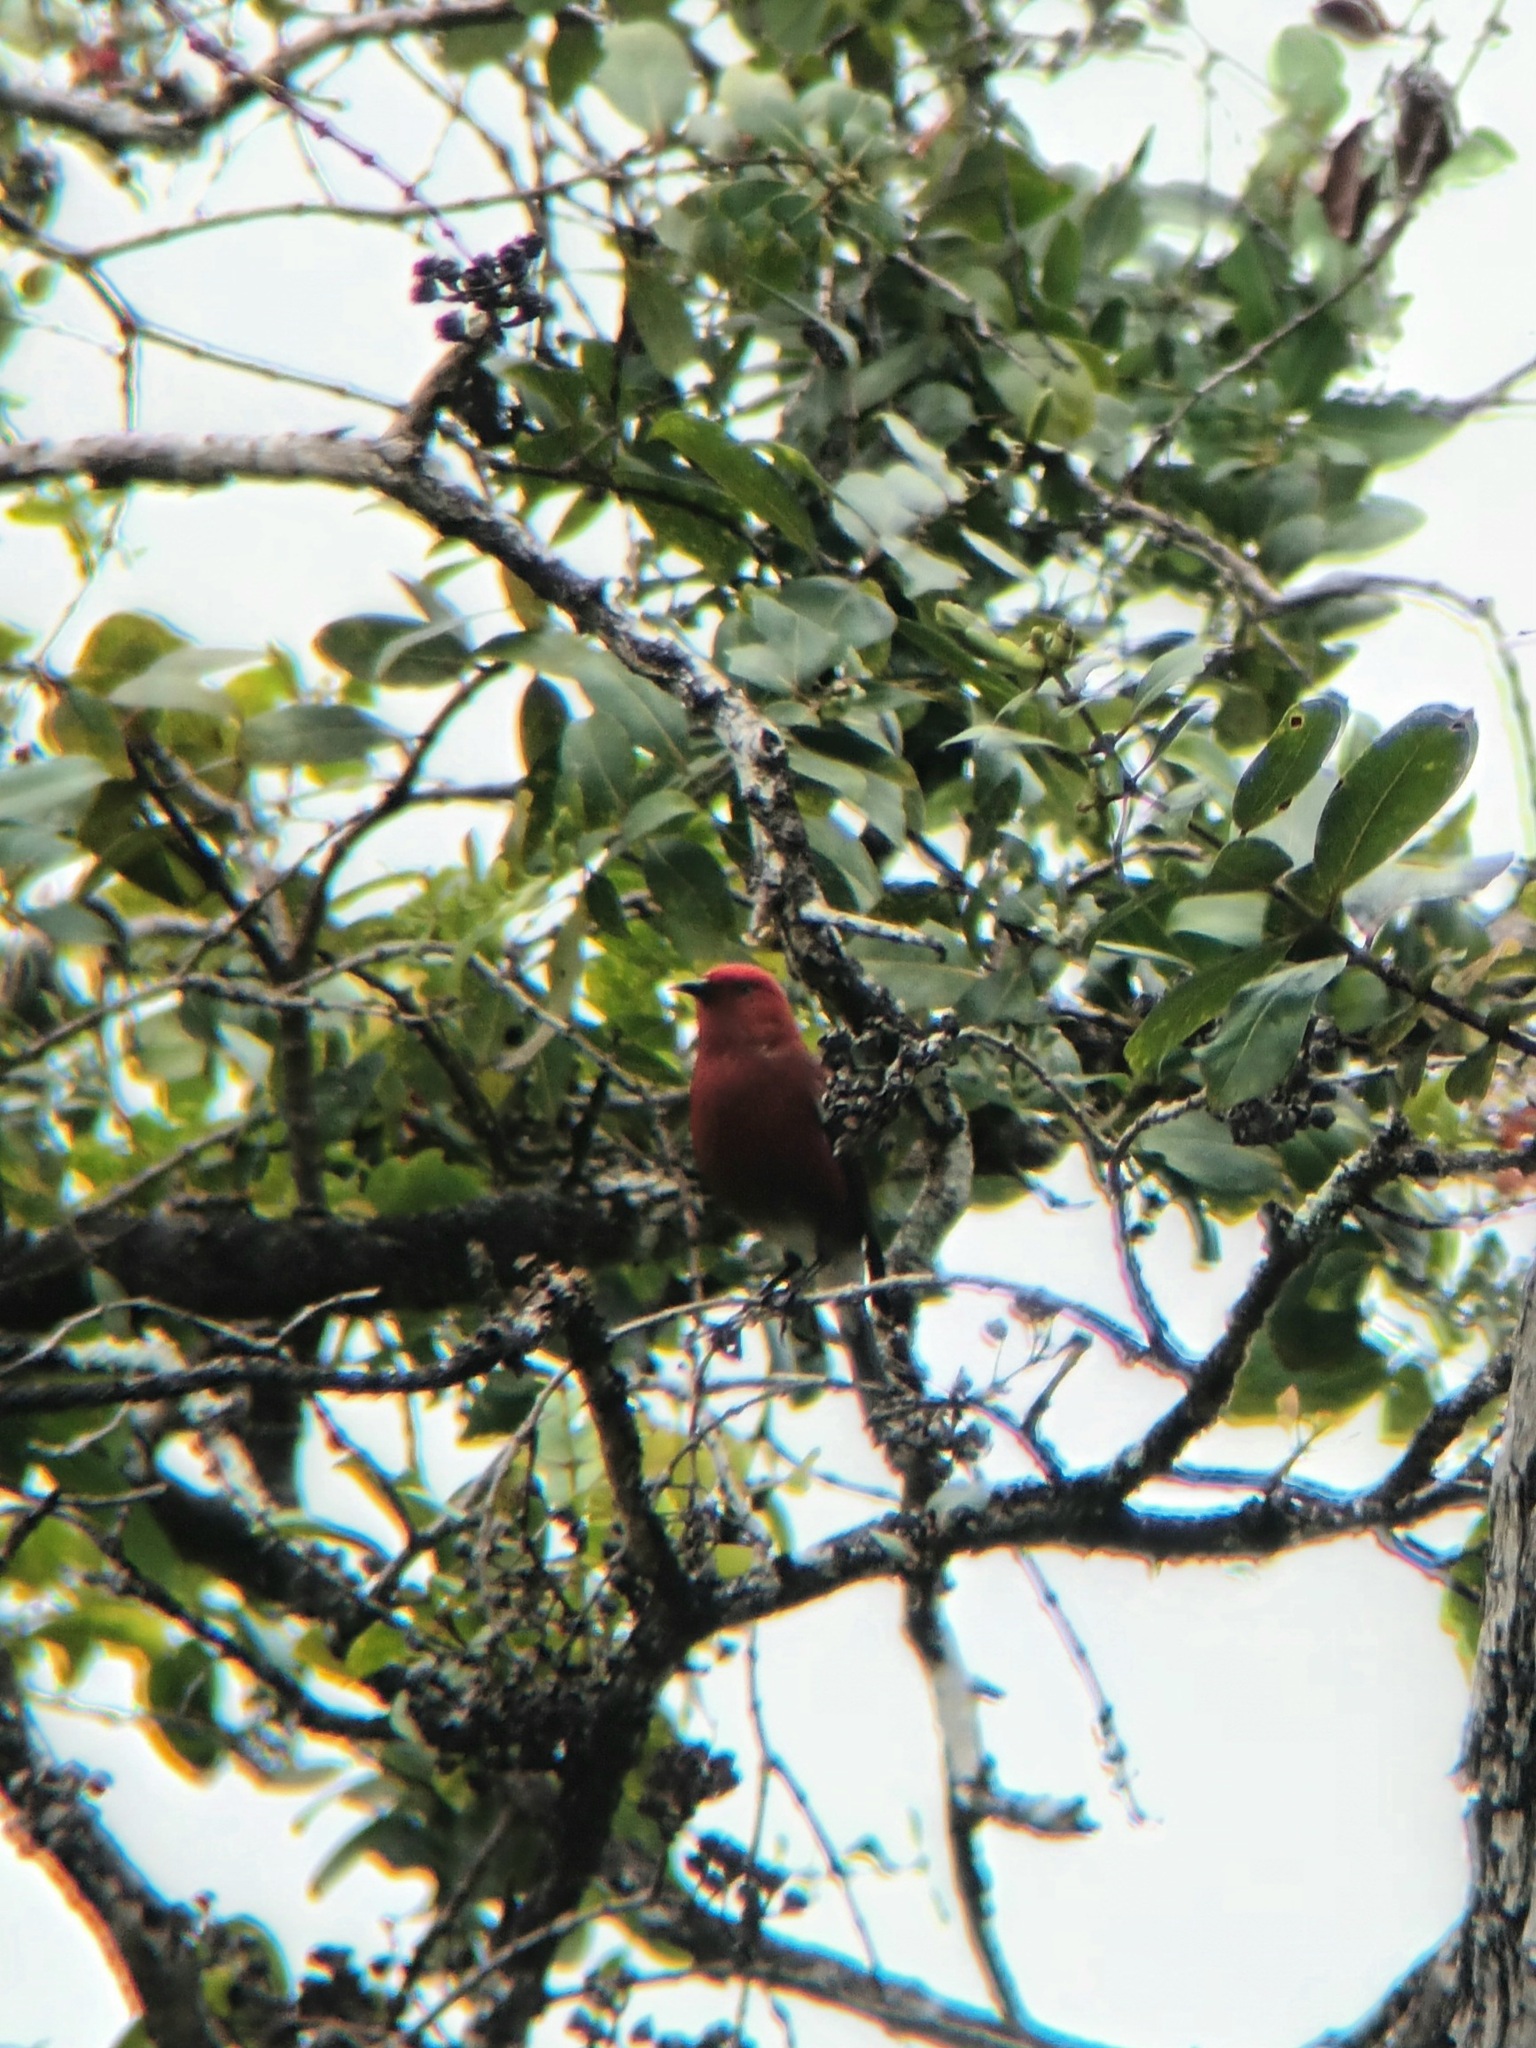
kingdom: Animalia
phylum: Chordata
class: Aves
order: Passeriformes
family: Fringillidae
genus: Himatione
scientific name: Himatione sanguinea
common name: Apapane
